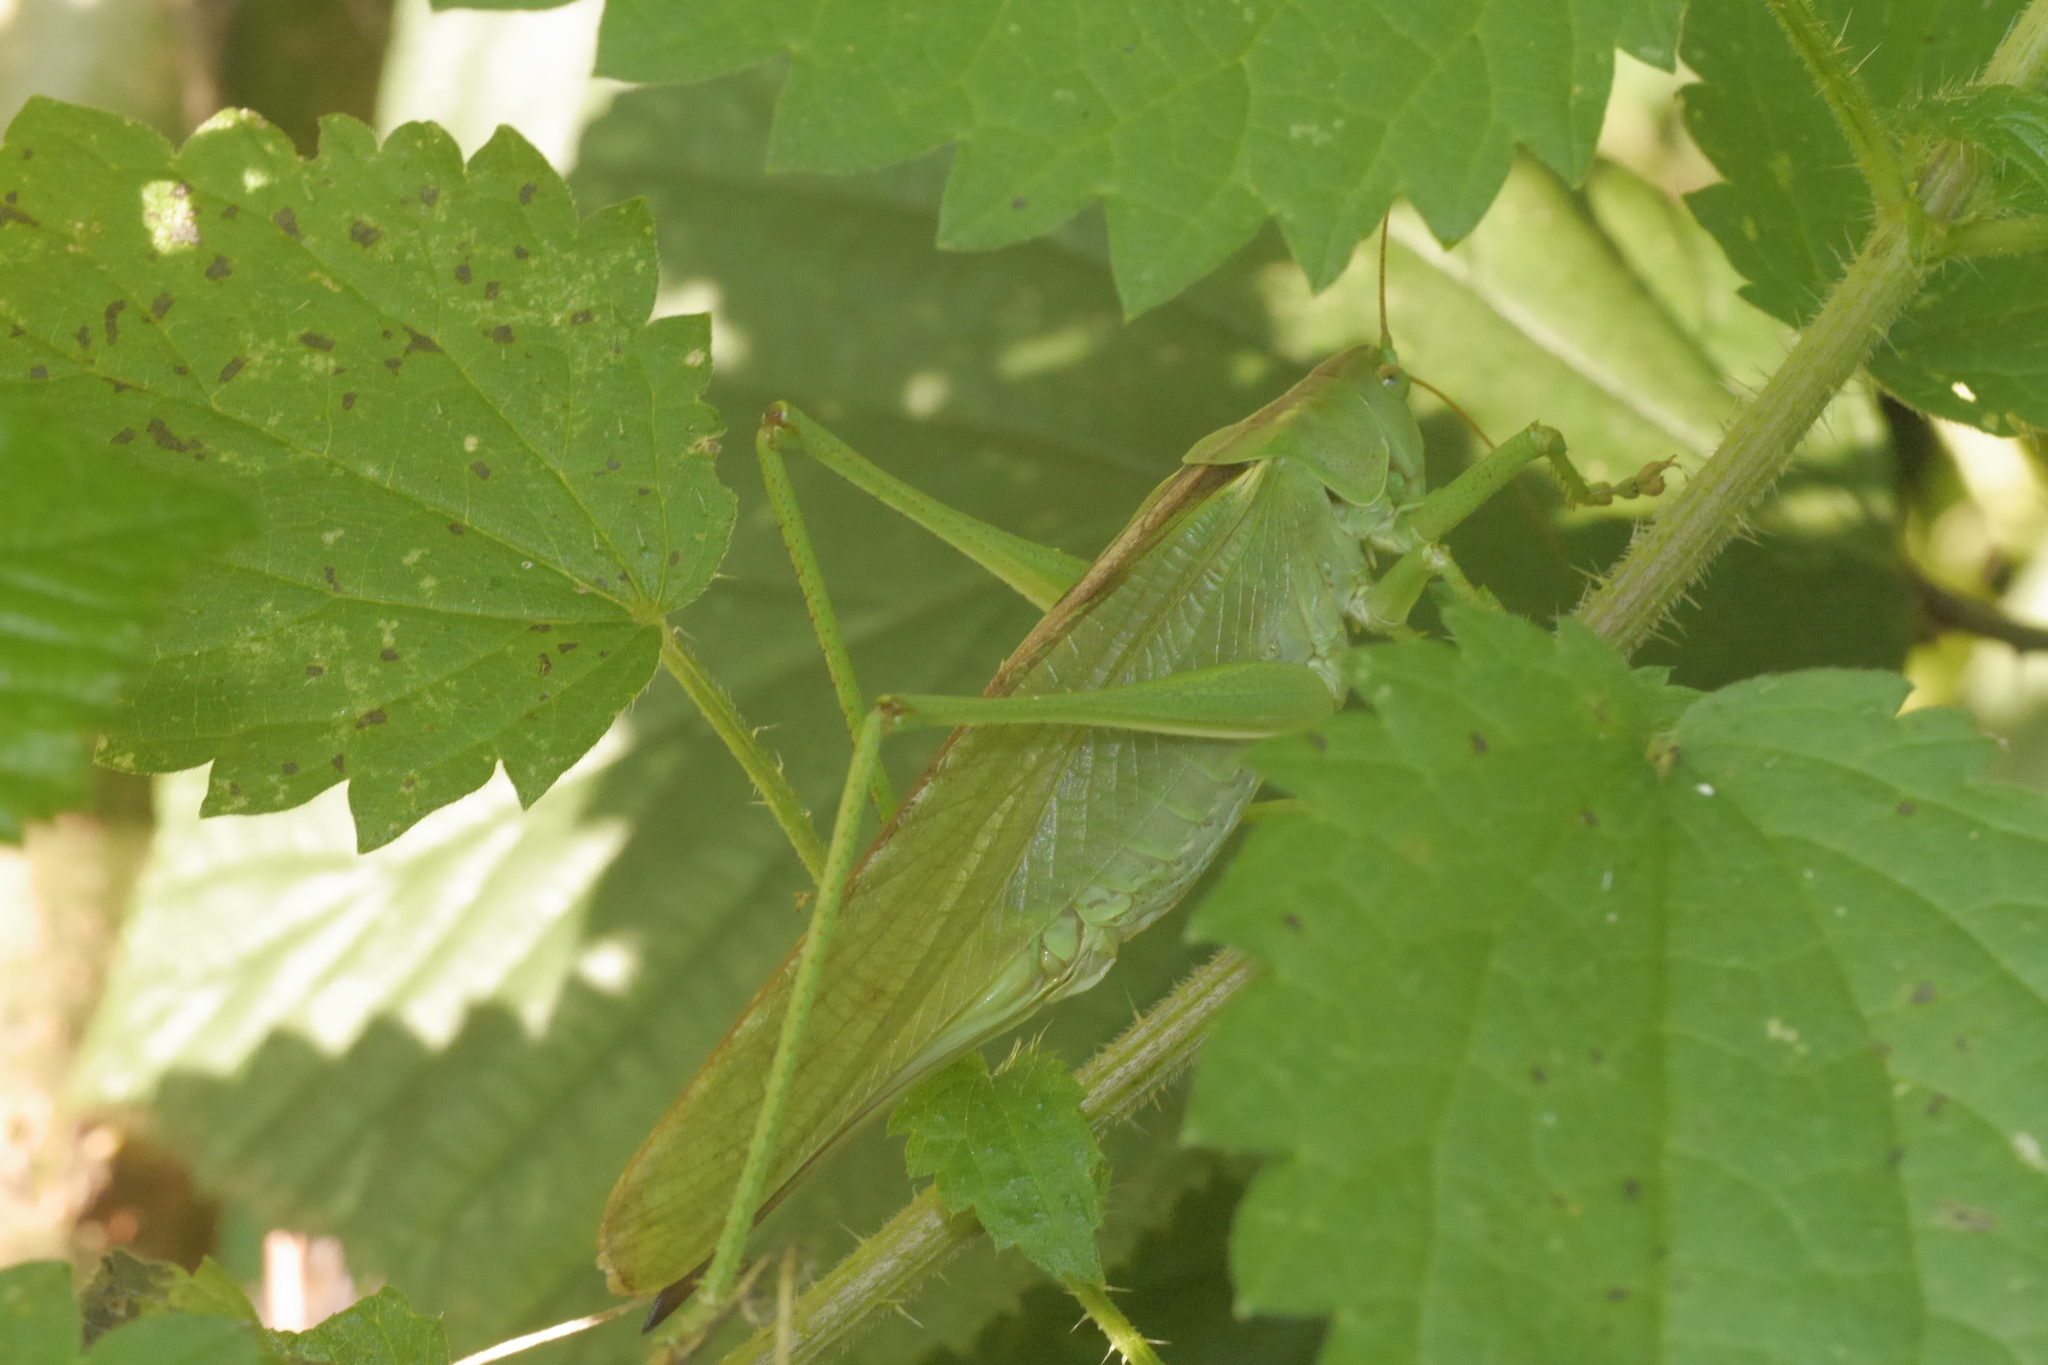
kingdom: Animalia
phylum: Arthropoda
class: Insecta
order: Orthoptera
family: Tettigoniidae
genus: Tettigonia
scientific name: Tettigonia viridissima
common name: Great green bush-cricket
